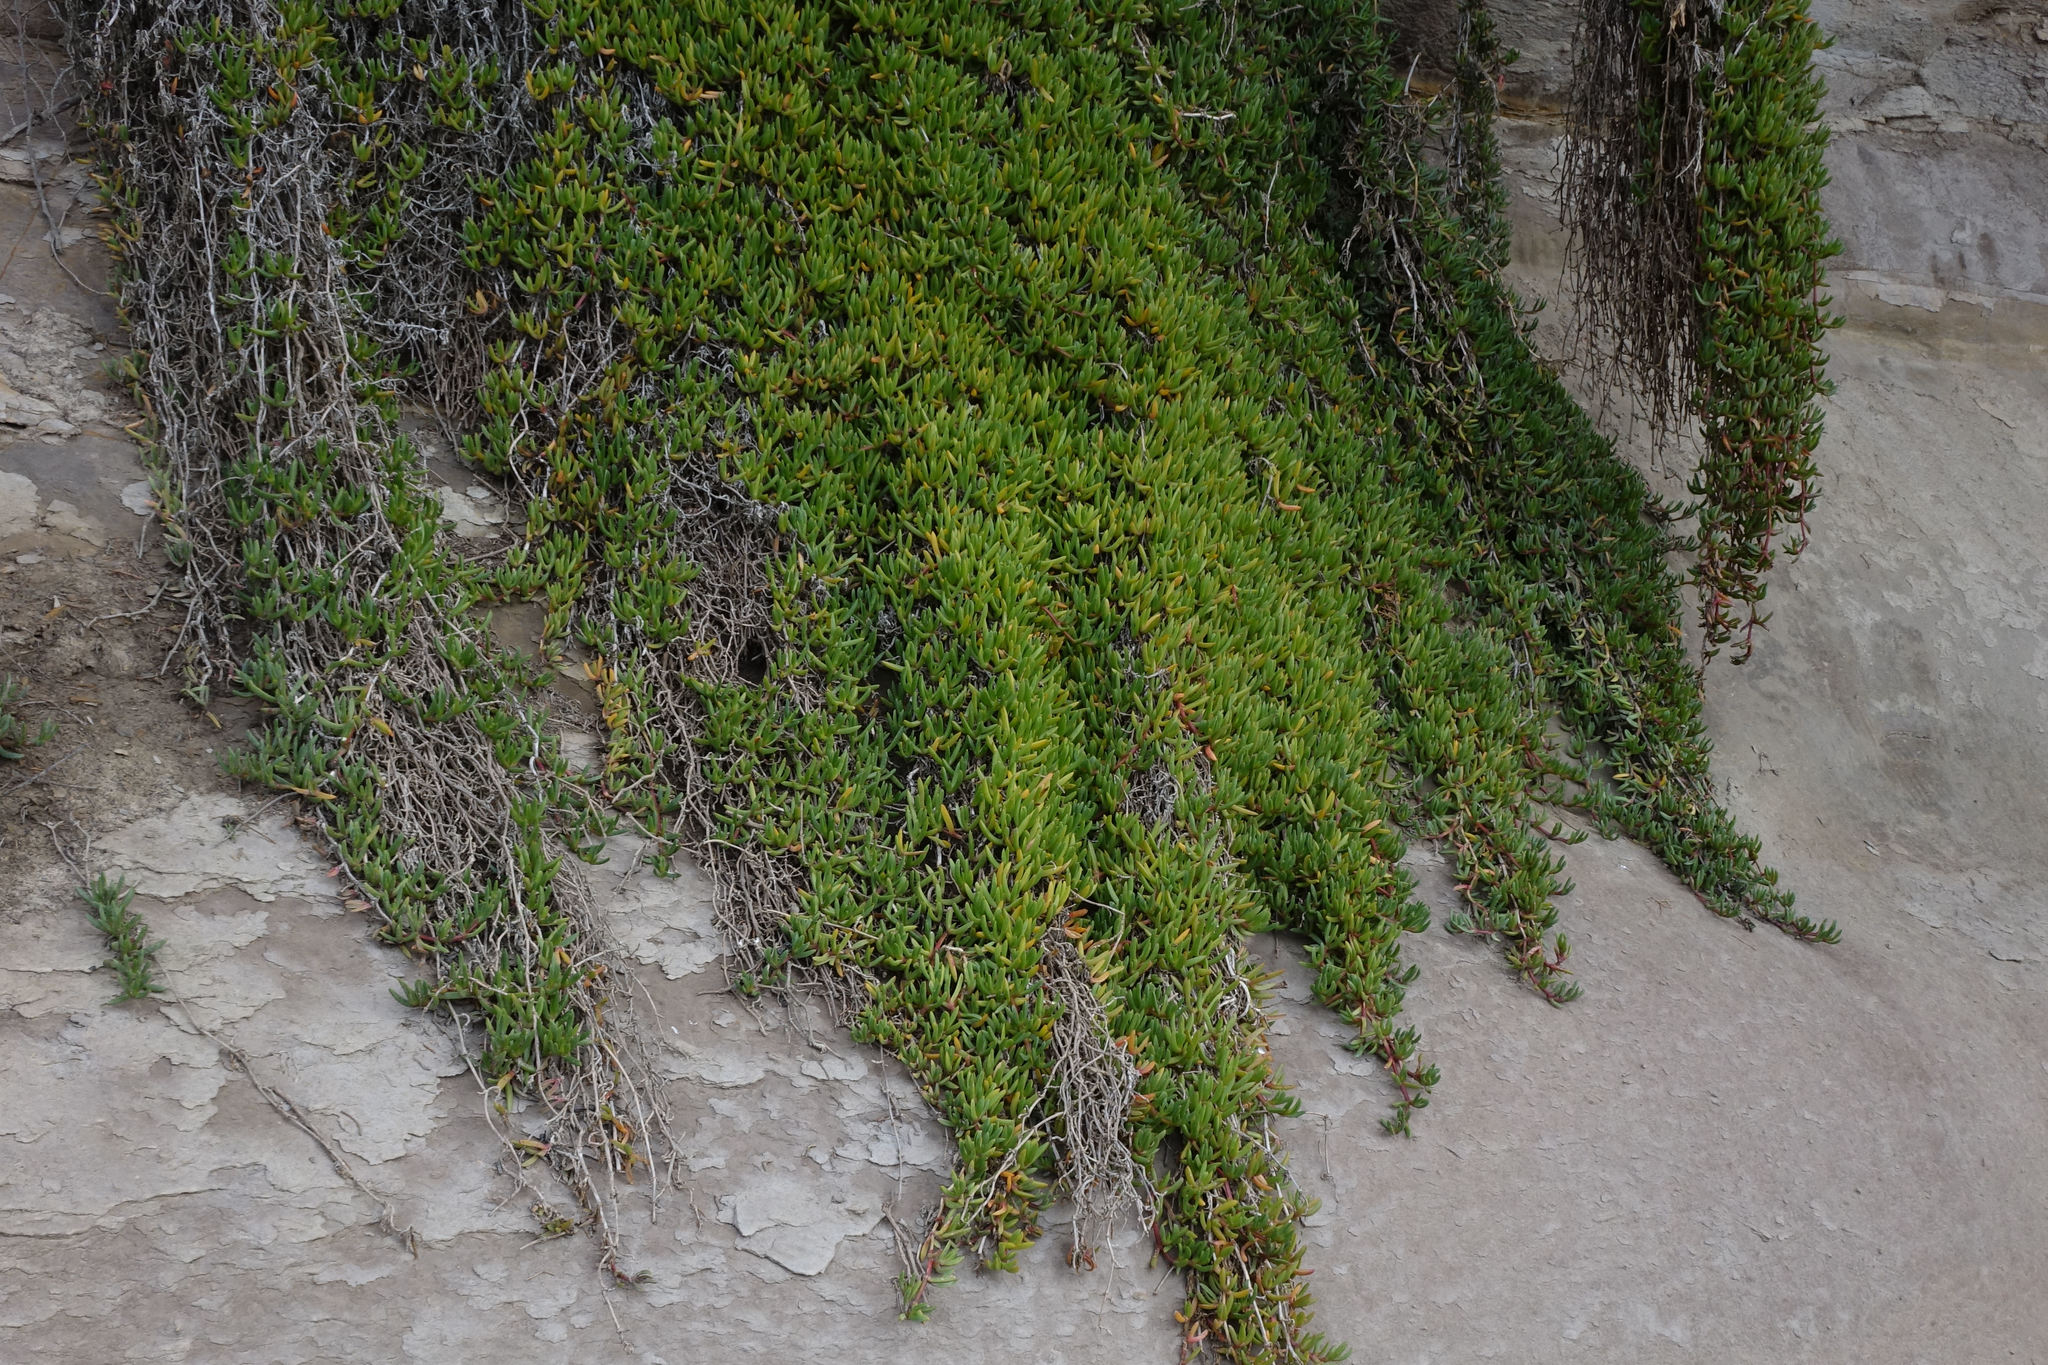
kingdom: Plantae
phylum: Tracheophyta
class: Magnoliopsida
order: Caryophyllales
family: Aizoaceae
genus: Disphyma
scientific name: Disphyma australe
